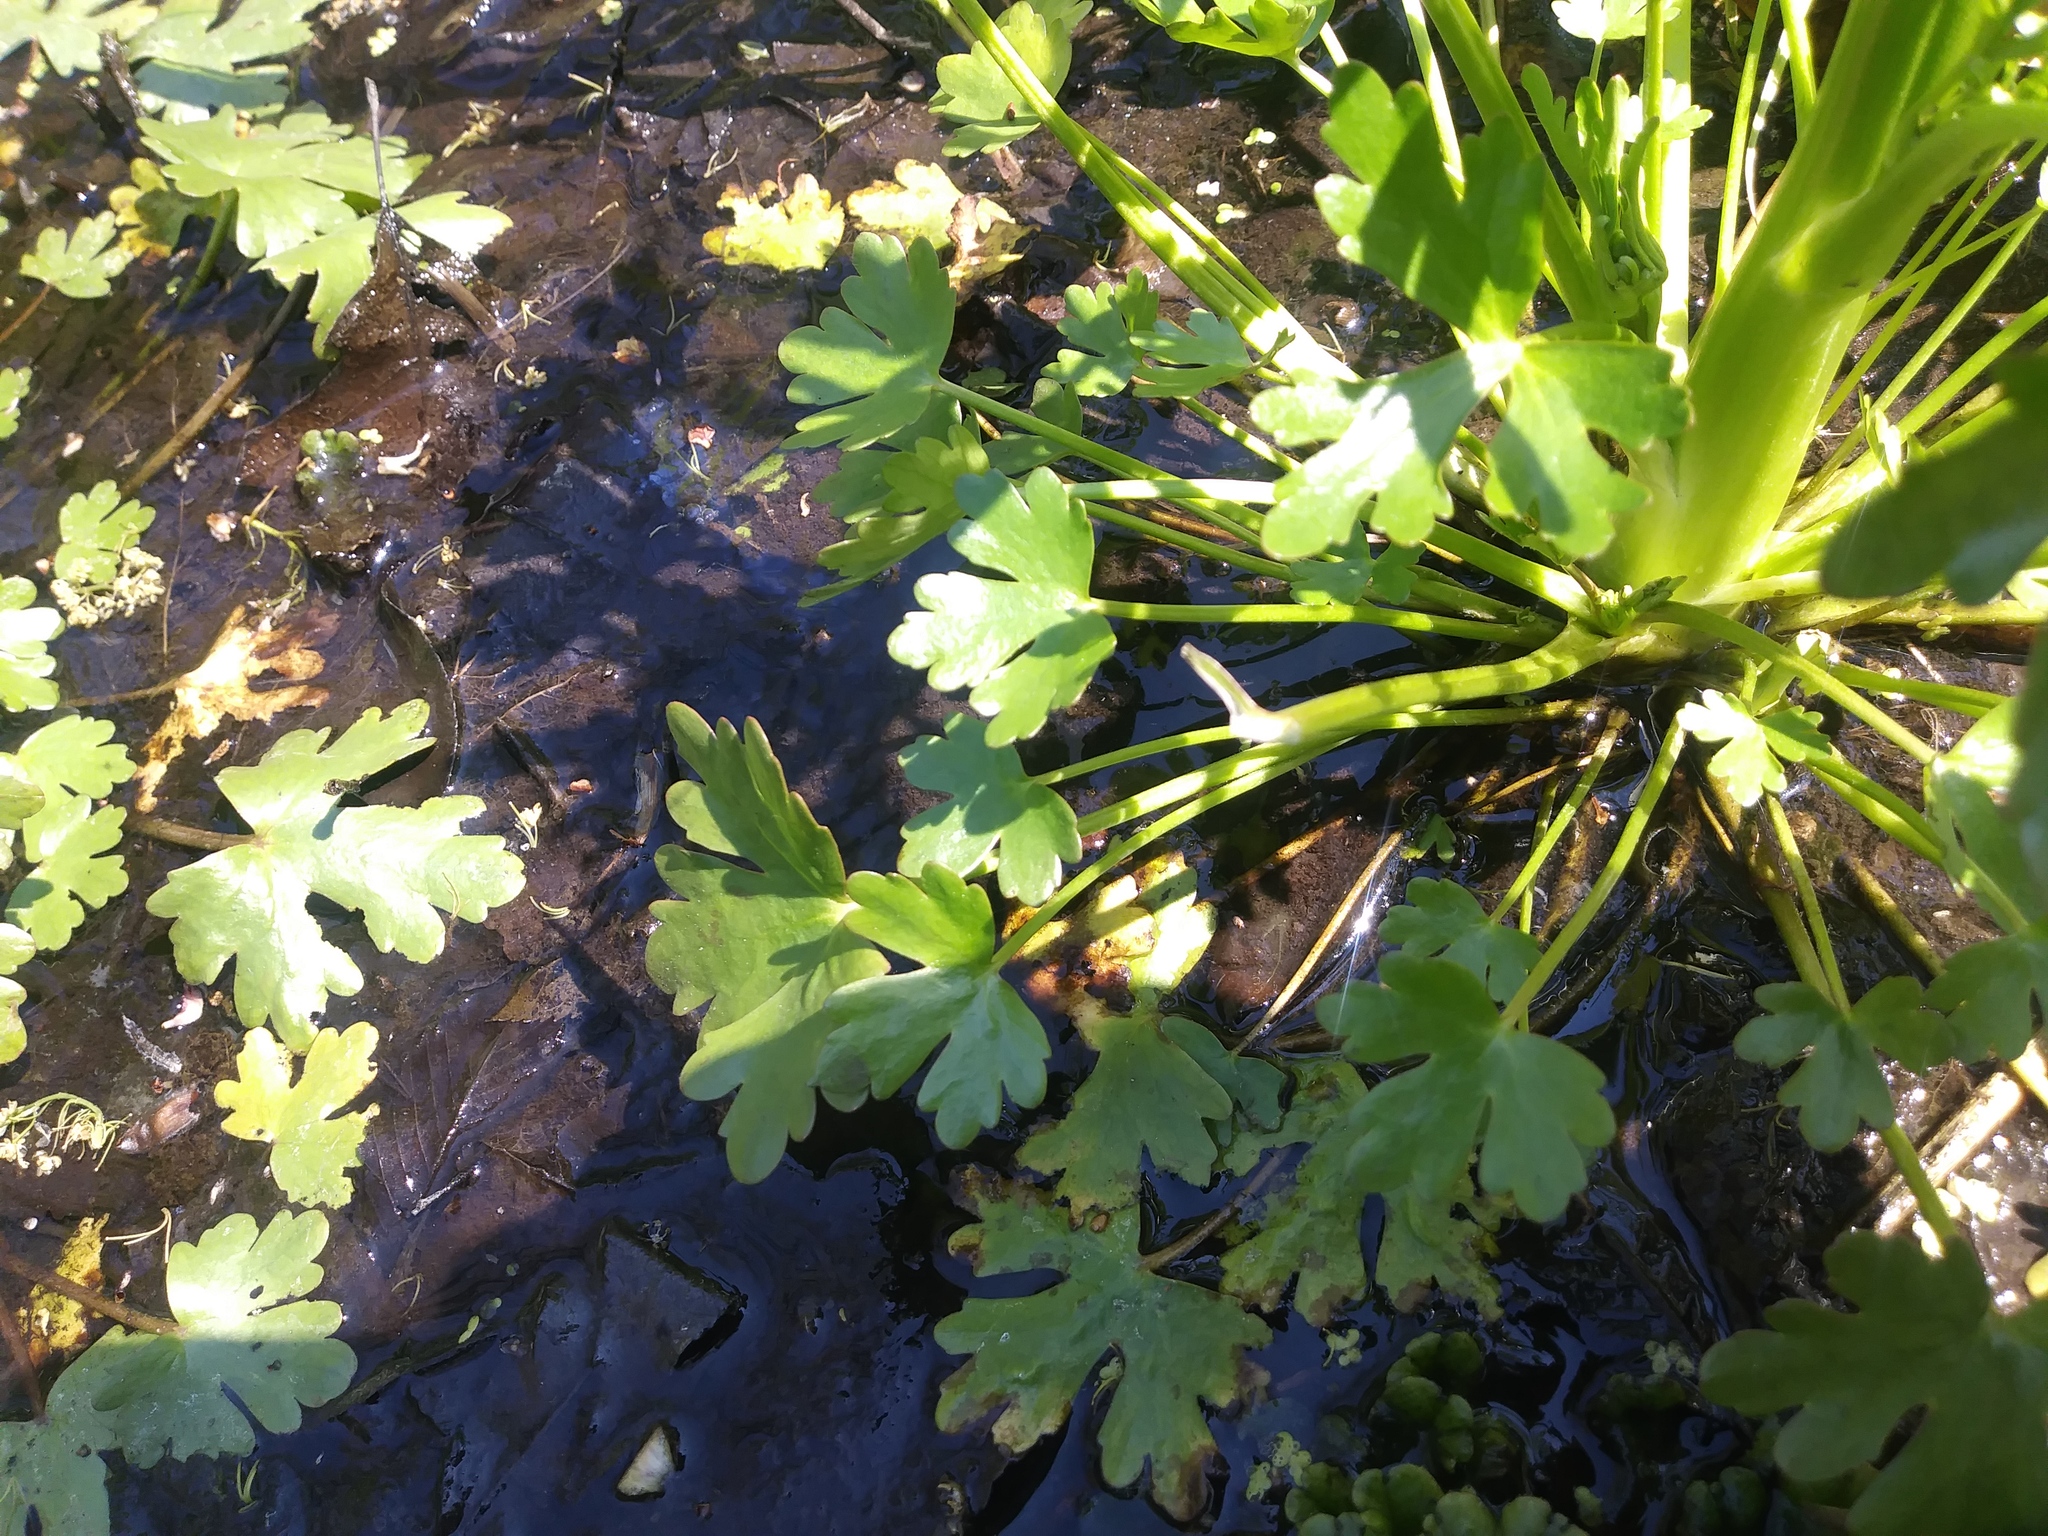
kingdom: Plantae
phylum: Tracheophyta
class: Magnoliopsida
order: Ranunculales
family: Ranunculaceae
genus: Ranunculus
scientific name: Ranunculus sceleratus
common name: Celery-leaved buttercup
